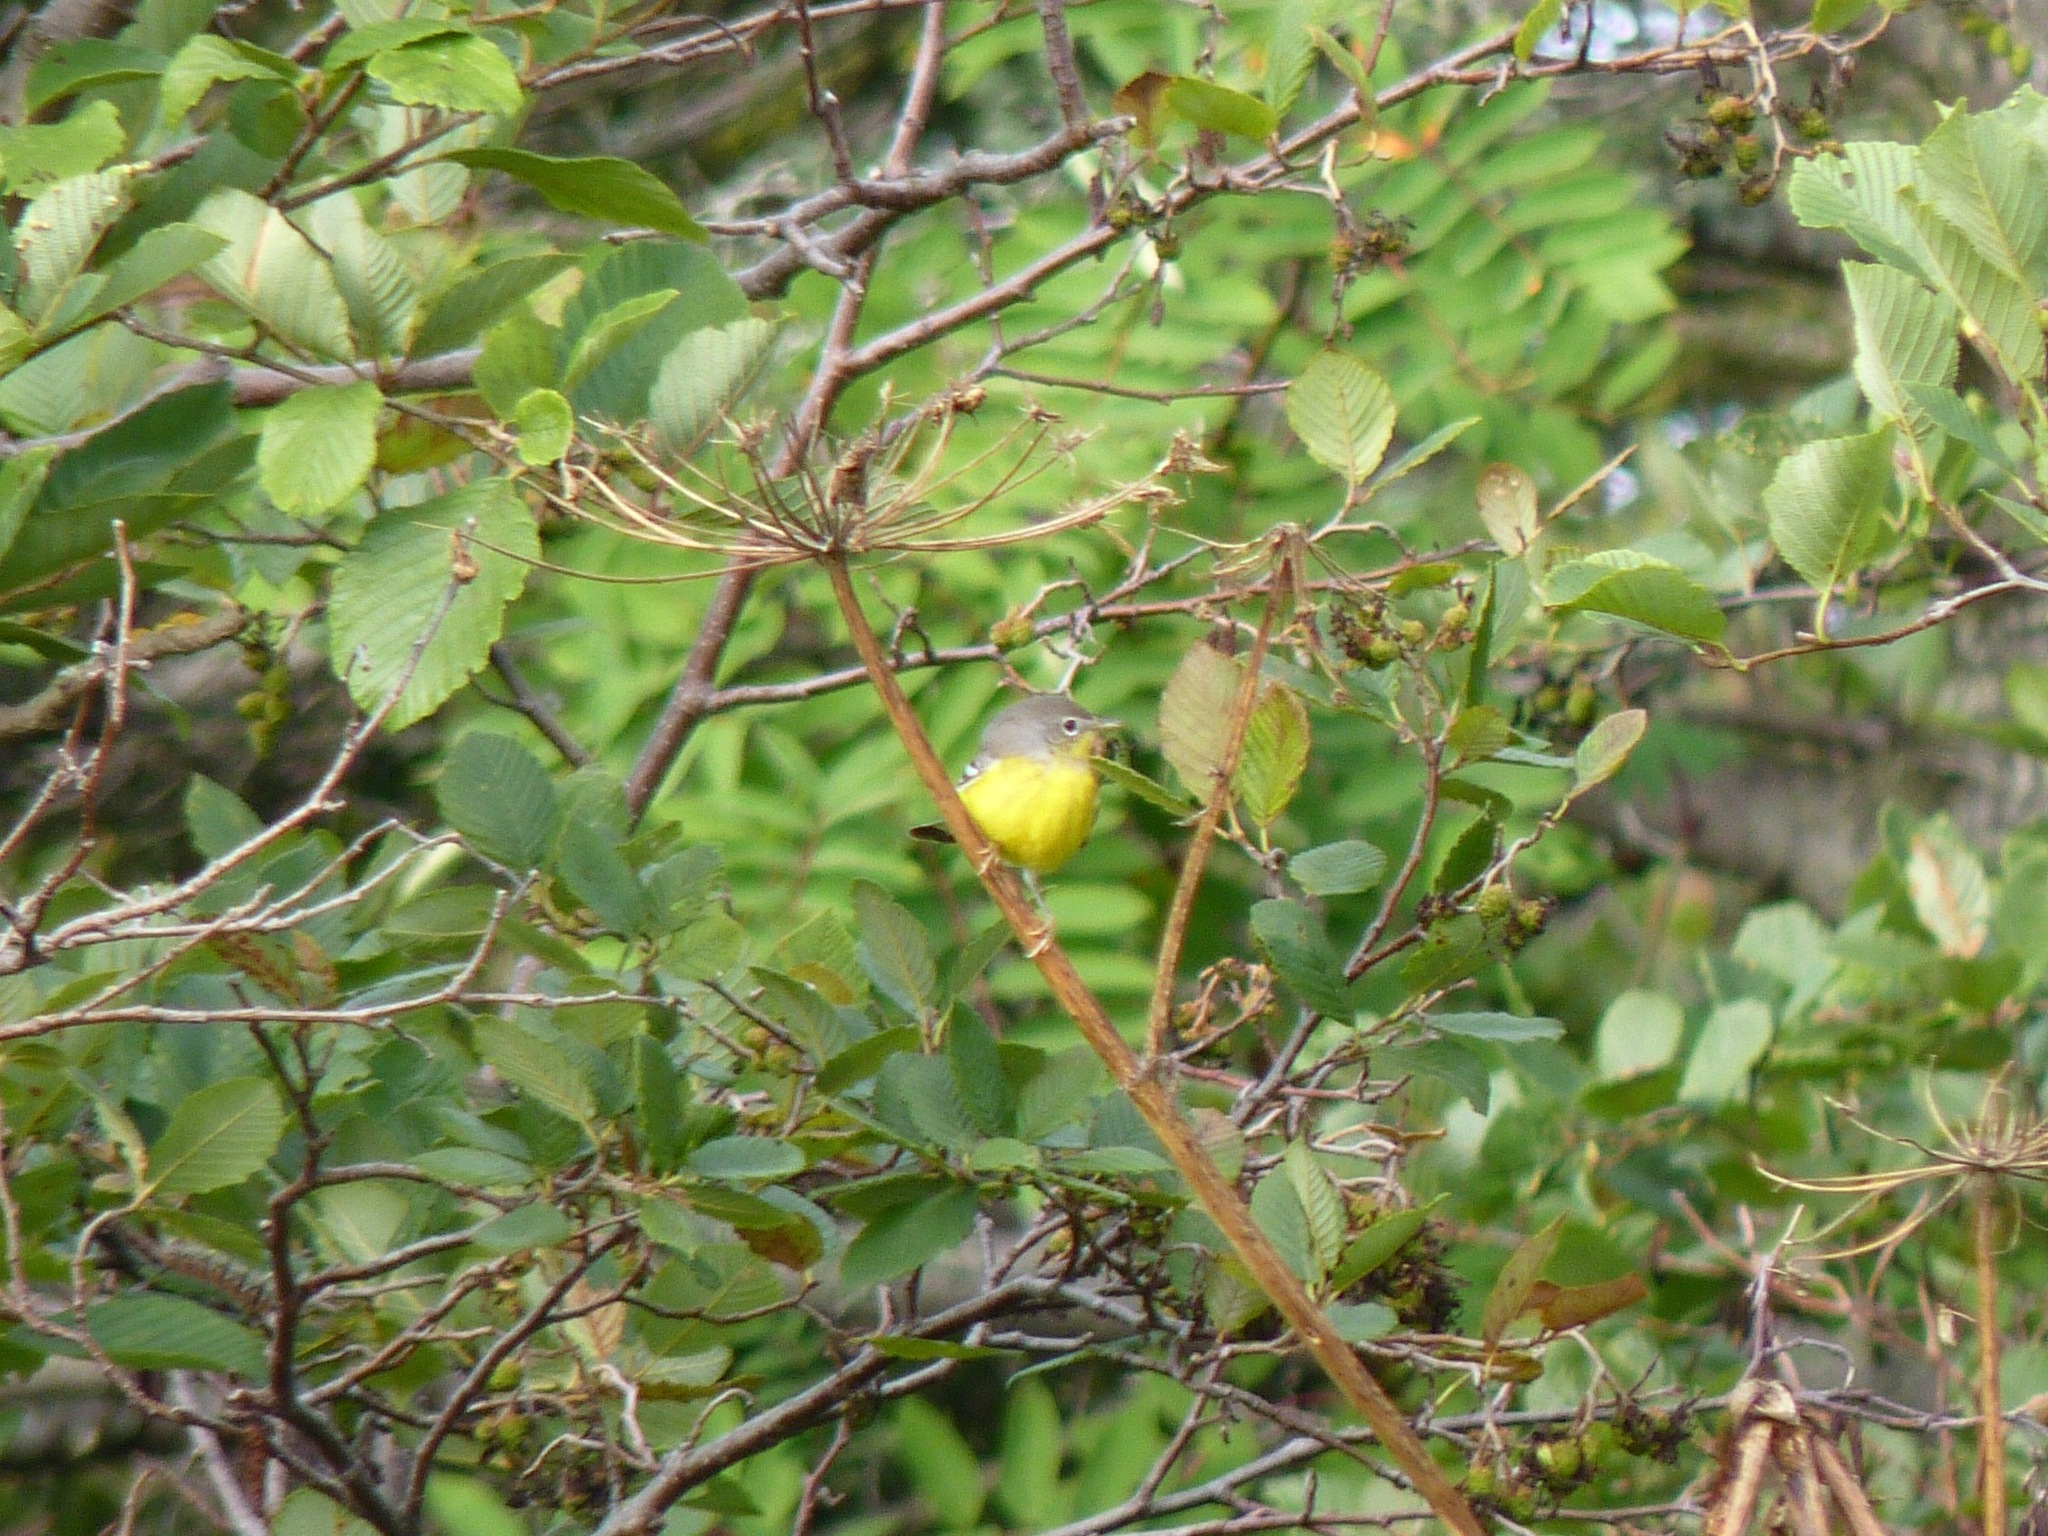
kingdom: Animalia
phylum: Chordata
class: Aves
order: Passeriformes
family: Parulidae
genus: Setophaga
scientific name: Setophaga magnolia
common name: Magnolia warbler
